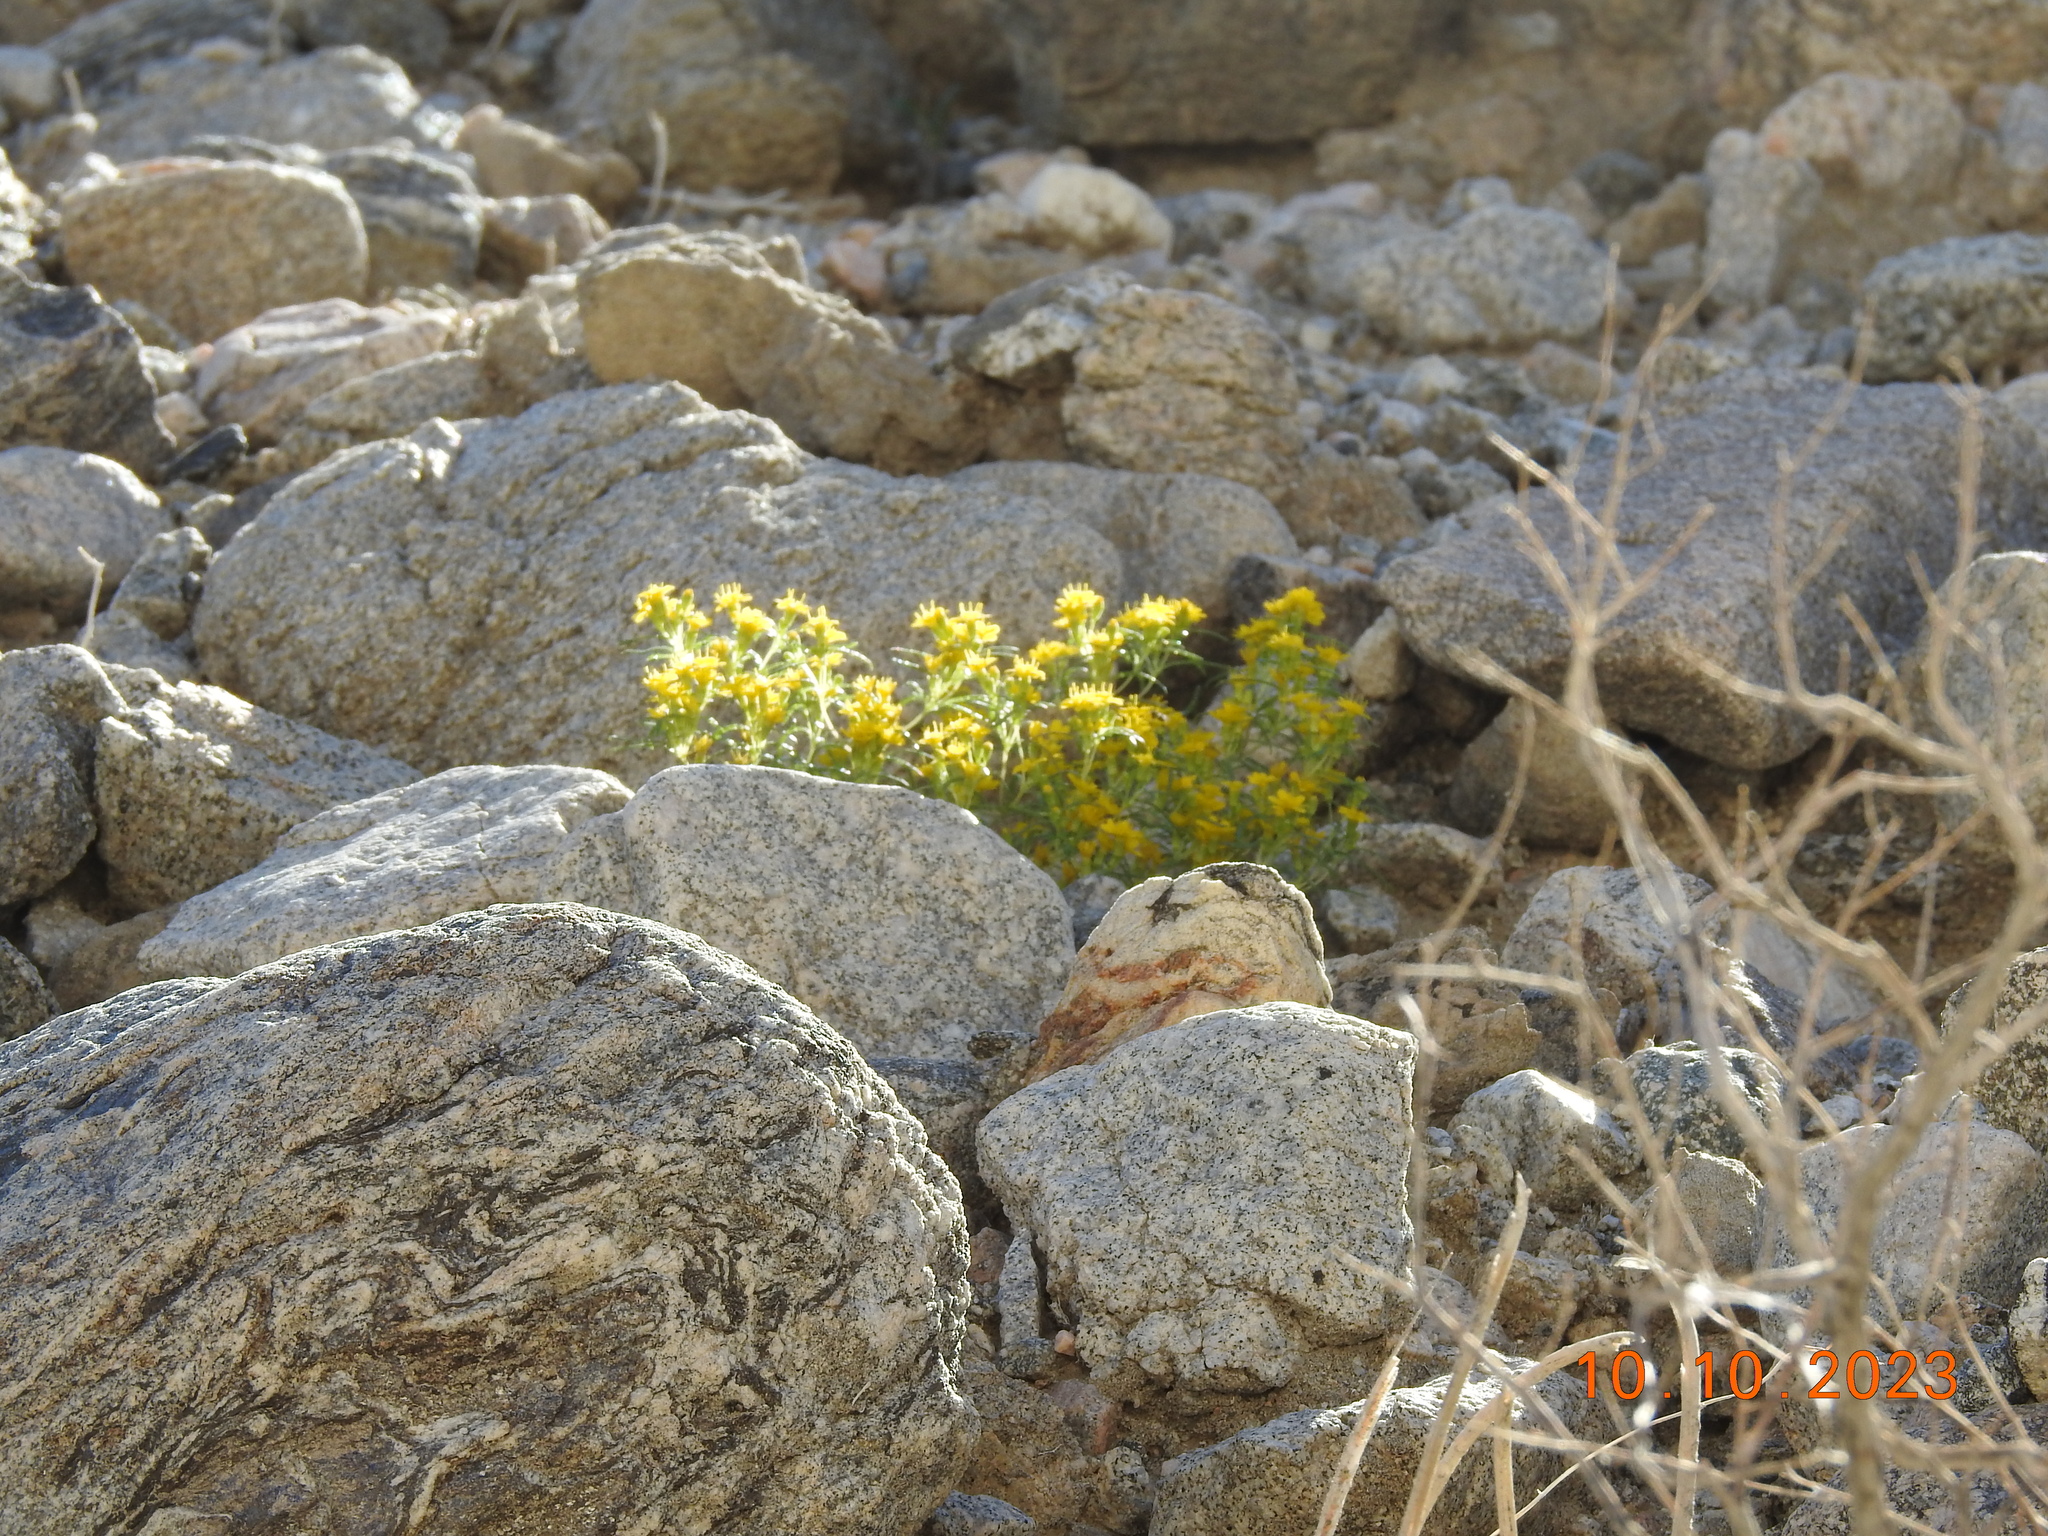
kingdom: Plantae
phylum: Tracheophyta
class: Magnoliopsida
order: Asterales
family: Asteraceae
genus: Pectis
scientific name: Pectis papposa
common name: Many-bristle chinchweed
